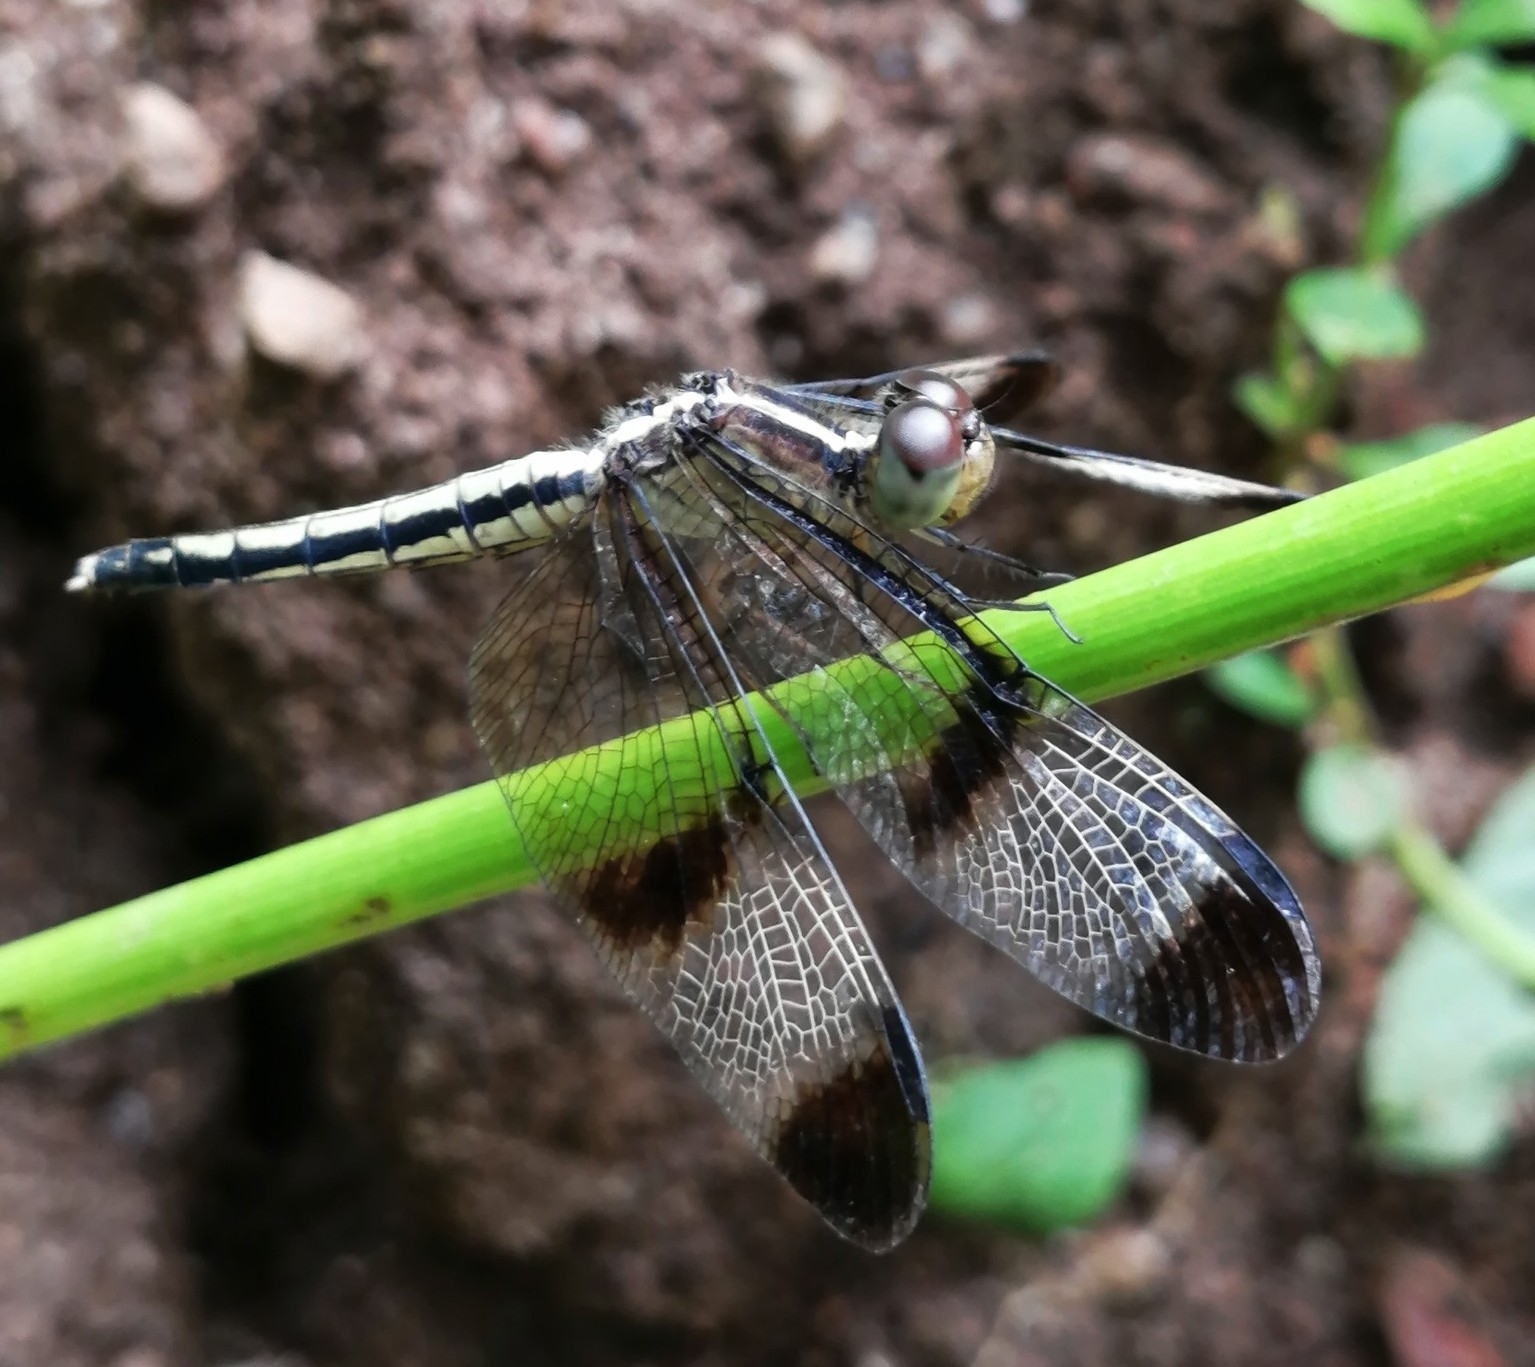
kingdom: Animalia
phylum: Arthropoda
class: Insecta
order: Odonata
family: Libellulidae
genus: Neurothemis
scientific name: Neurothemis tullia
